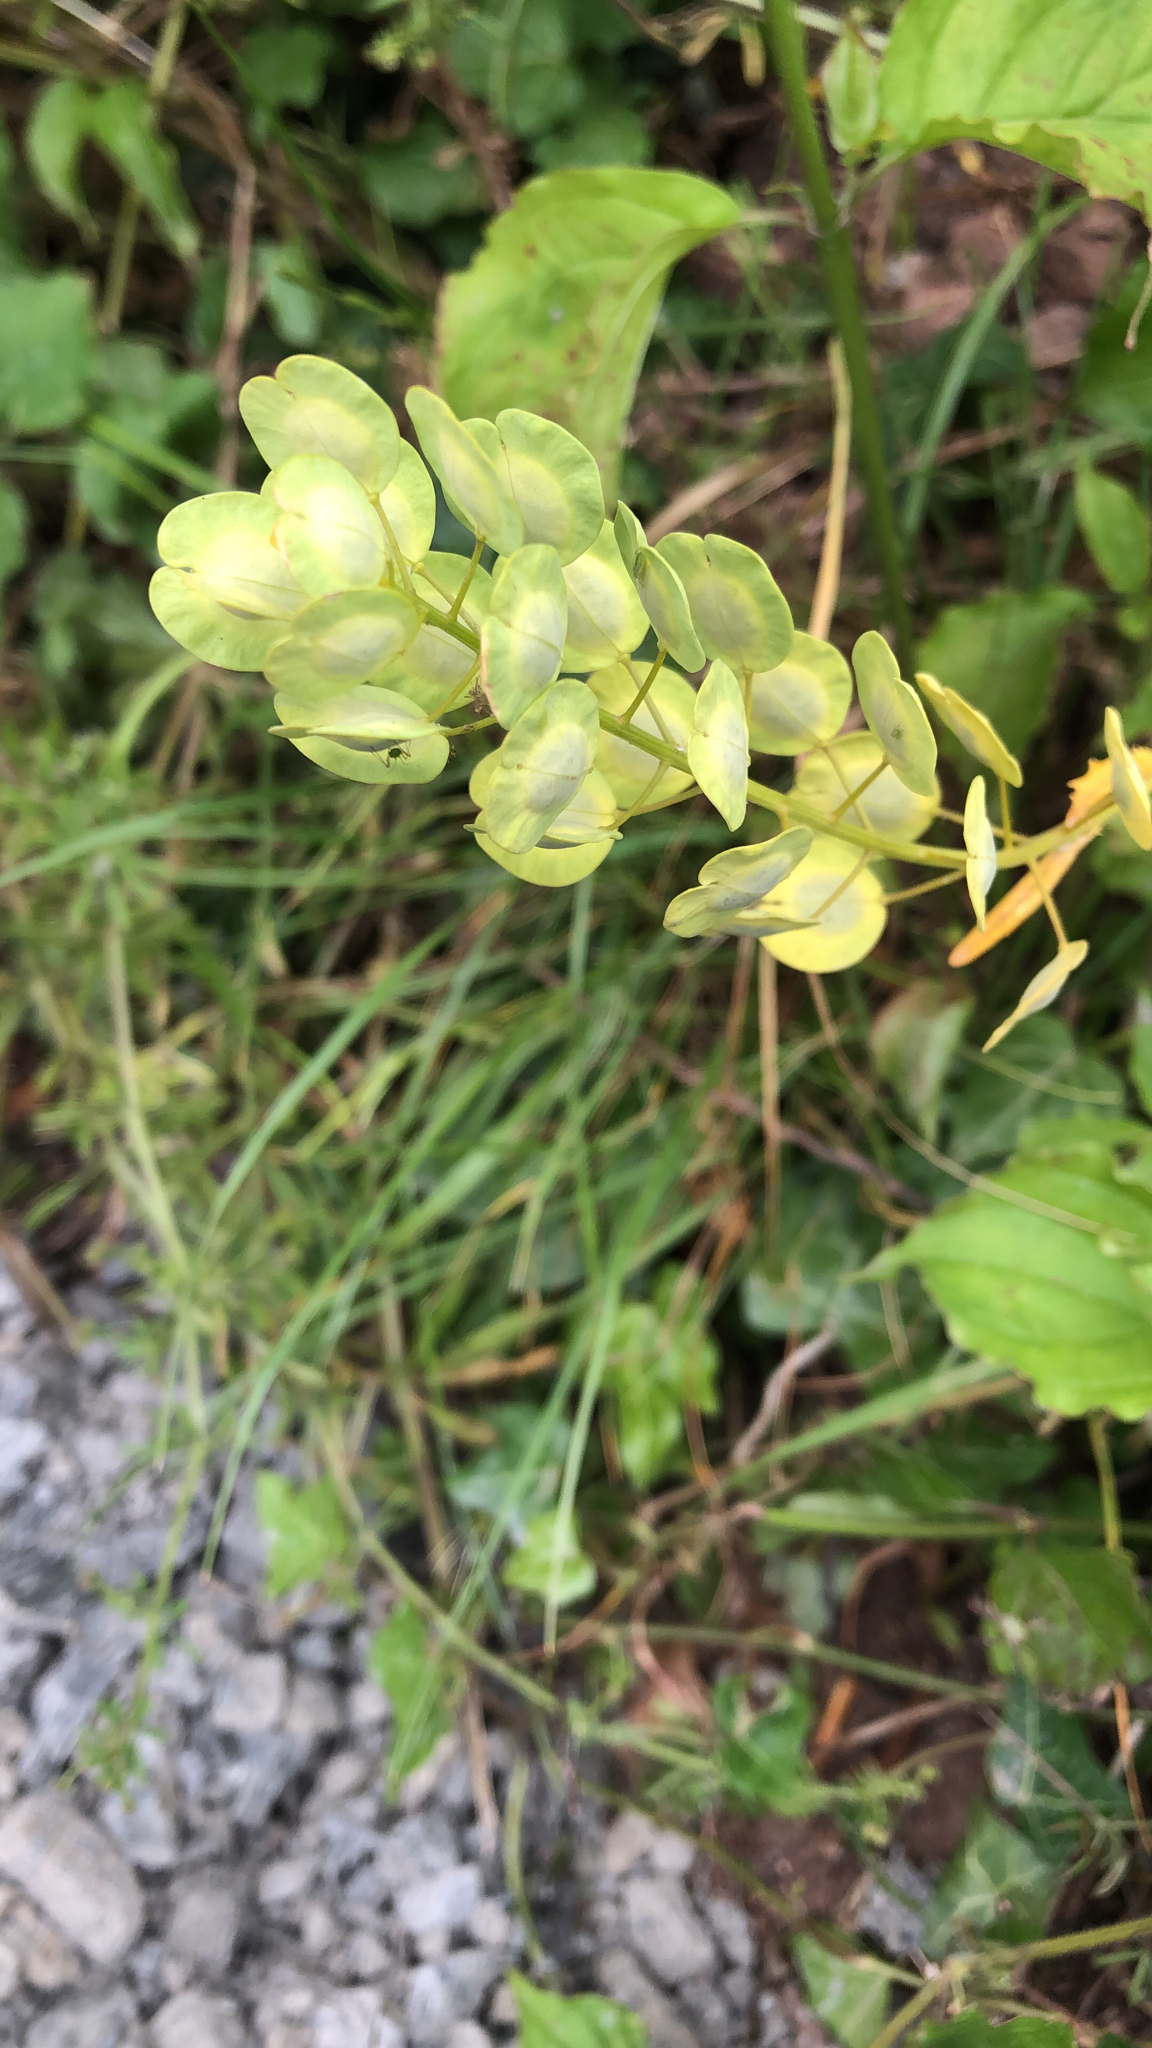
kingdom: Plantae
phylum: Tracheophyta
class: Magnoliopsida
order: Brassicales
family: Brassicaceae
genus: Thlaspi
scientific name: Thlaspi arvense
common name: Field pennycress
